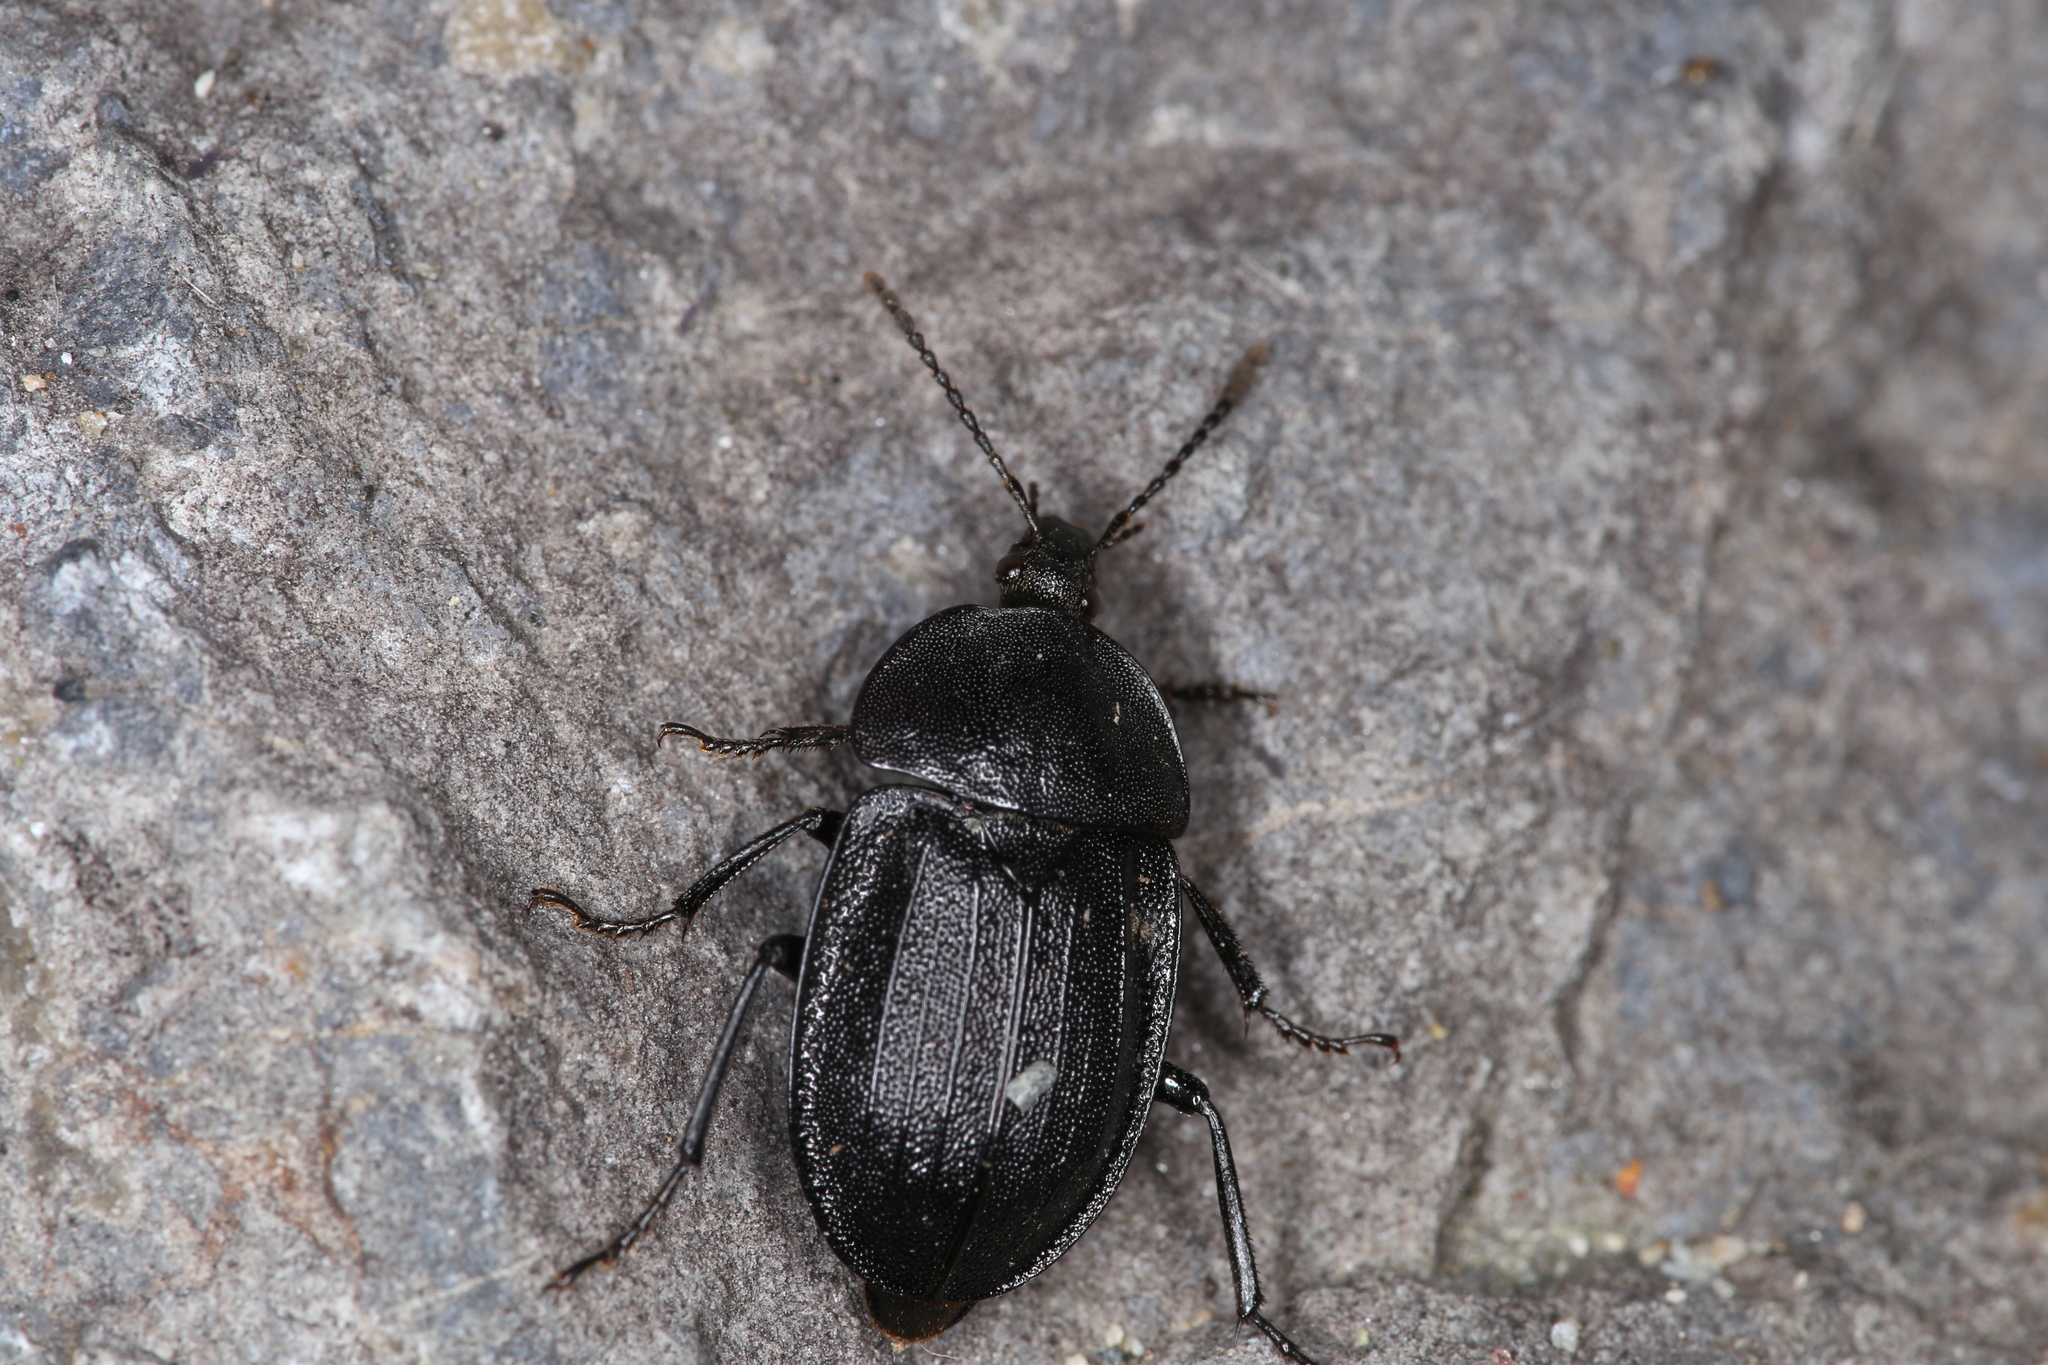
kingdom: Animalia
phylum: Arthropoda
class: Insecta
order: Coleoptera
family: Staphylinidae
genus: Silpha
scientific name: Silpha atrata
